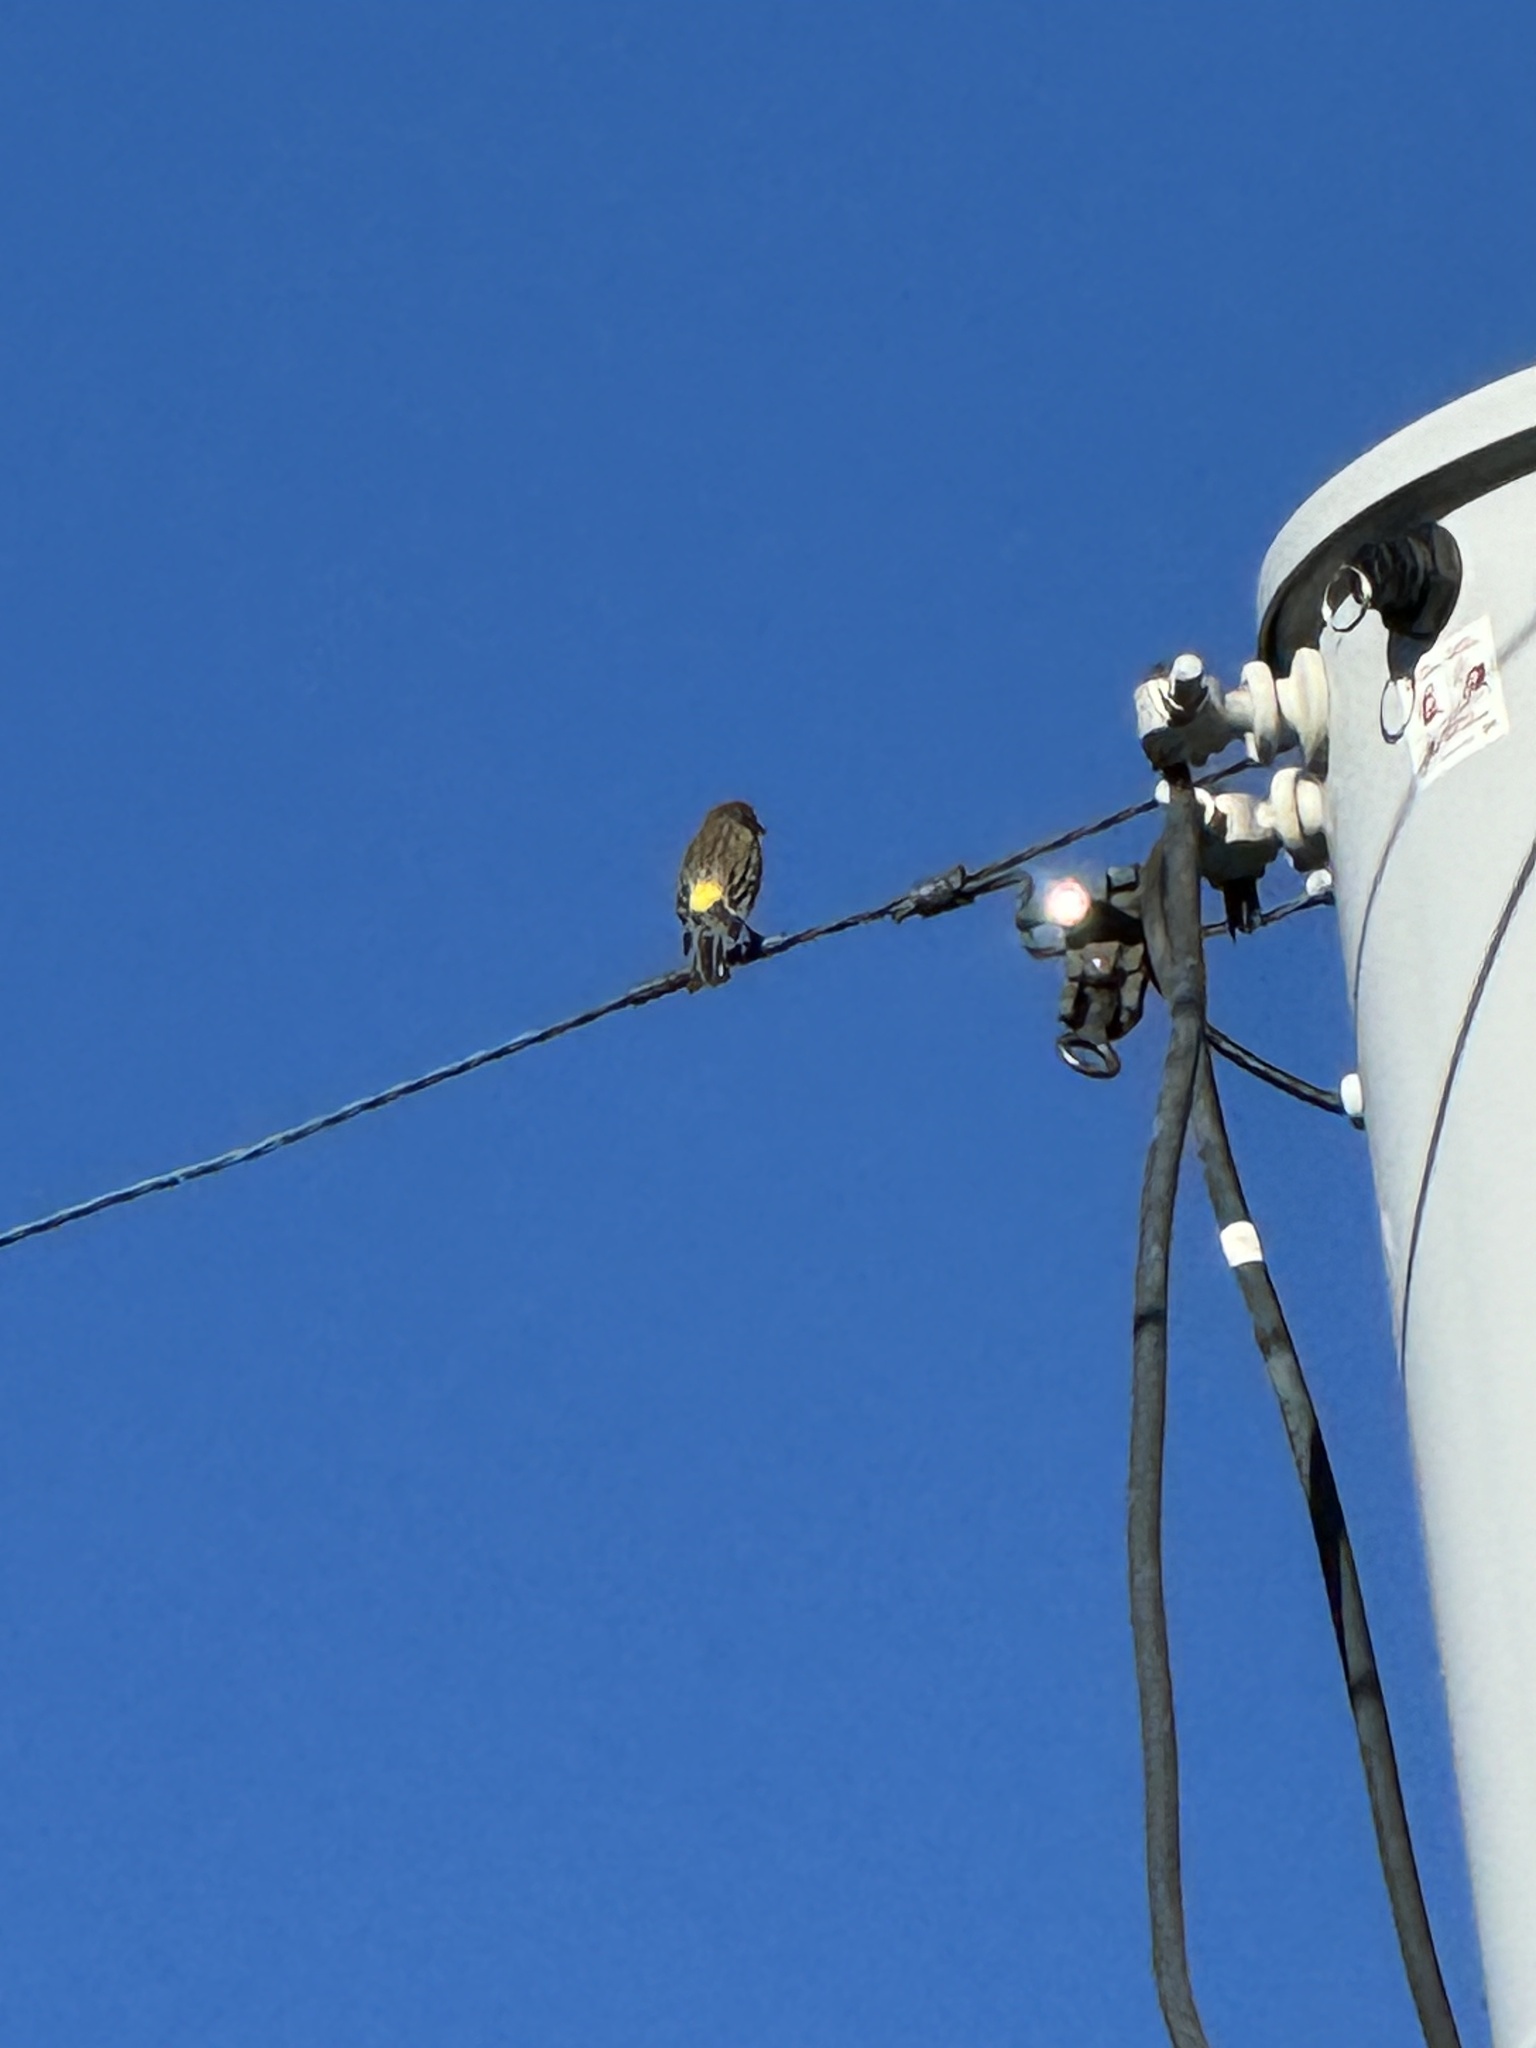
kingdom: Animalia
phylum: Chordata
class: Aves
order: Passeriformes
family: Parulidae
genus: Setophaga
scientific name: Setophaga coronata
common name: Myrtle warbler
